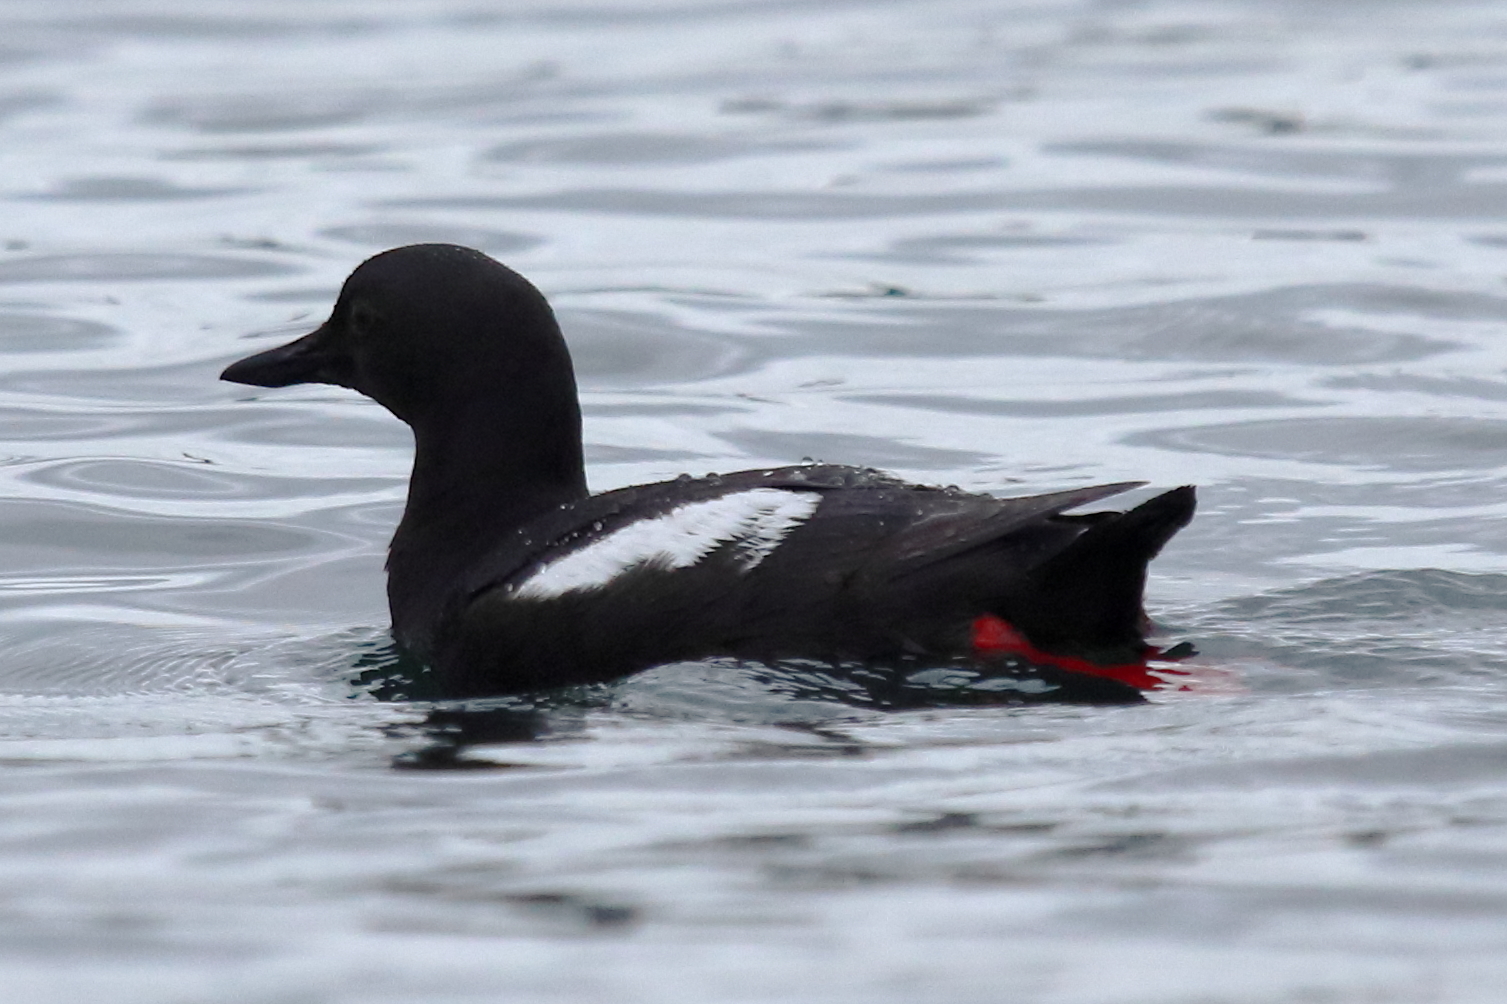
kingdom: Animalia
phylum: Chordata
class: Aves
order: Charadriiformes
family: Alcidae
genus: Cepphus
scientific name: Cepphus columba
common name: Pigeon guillemot
